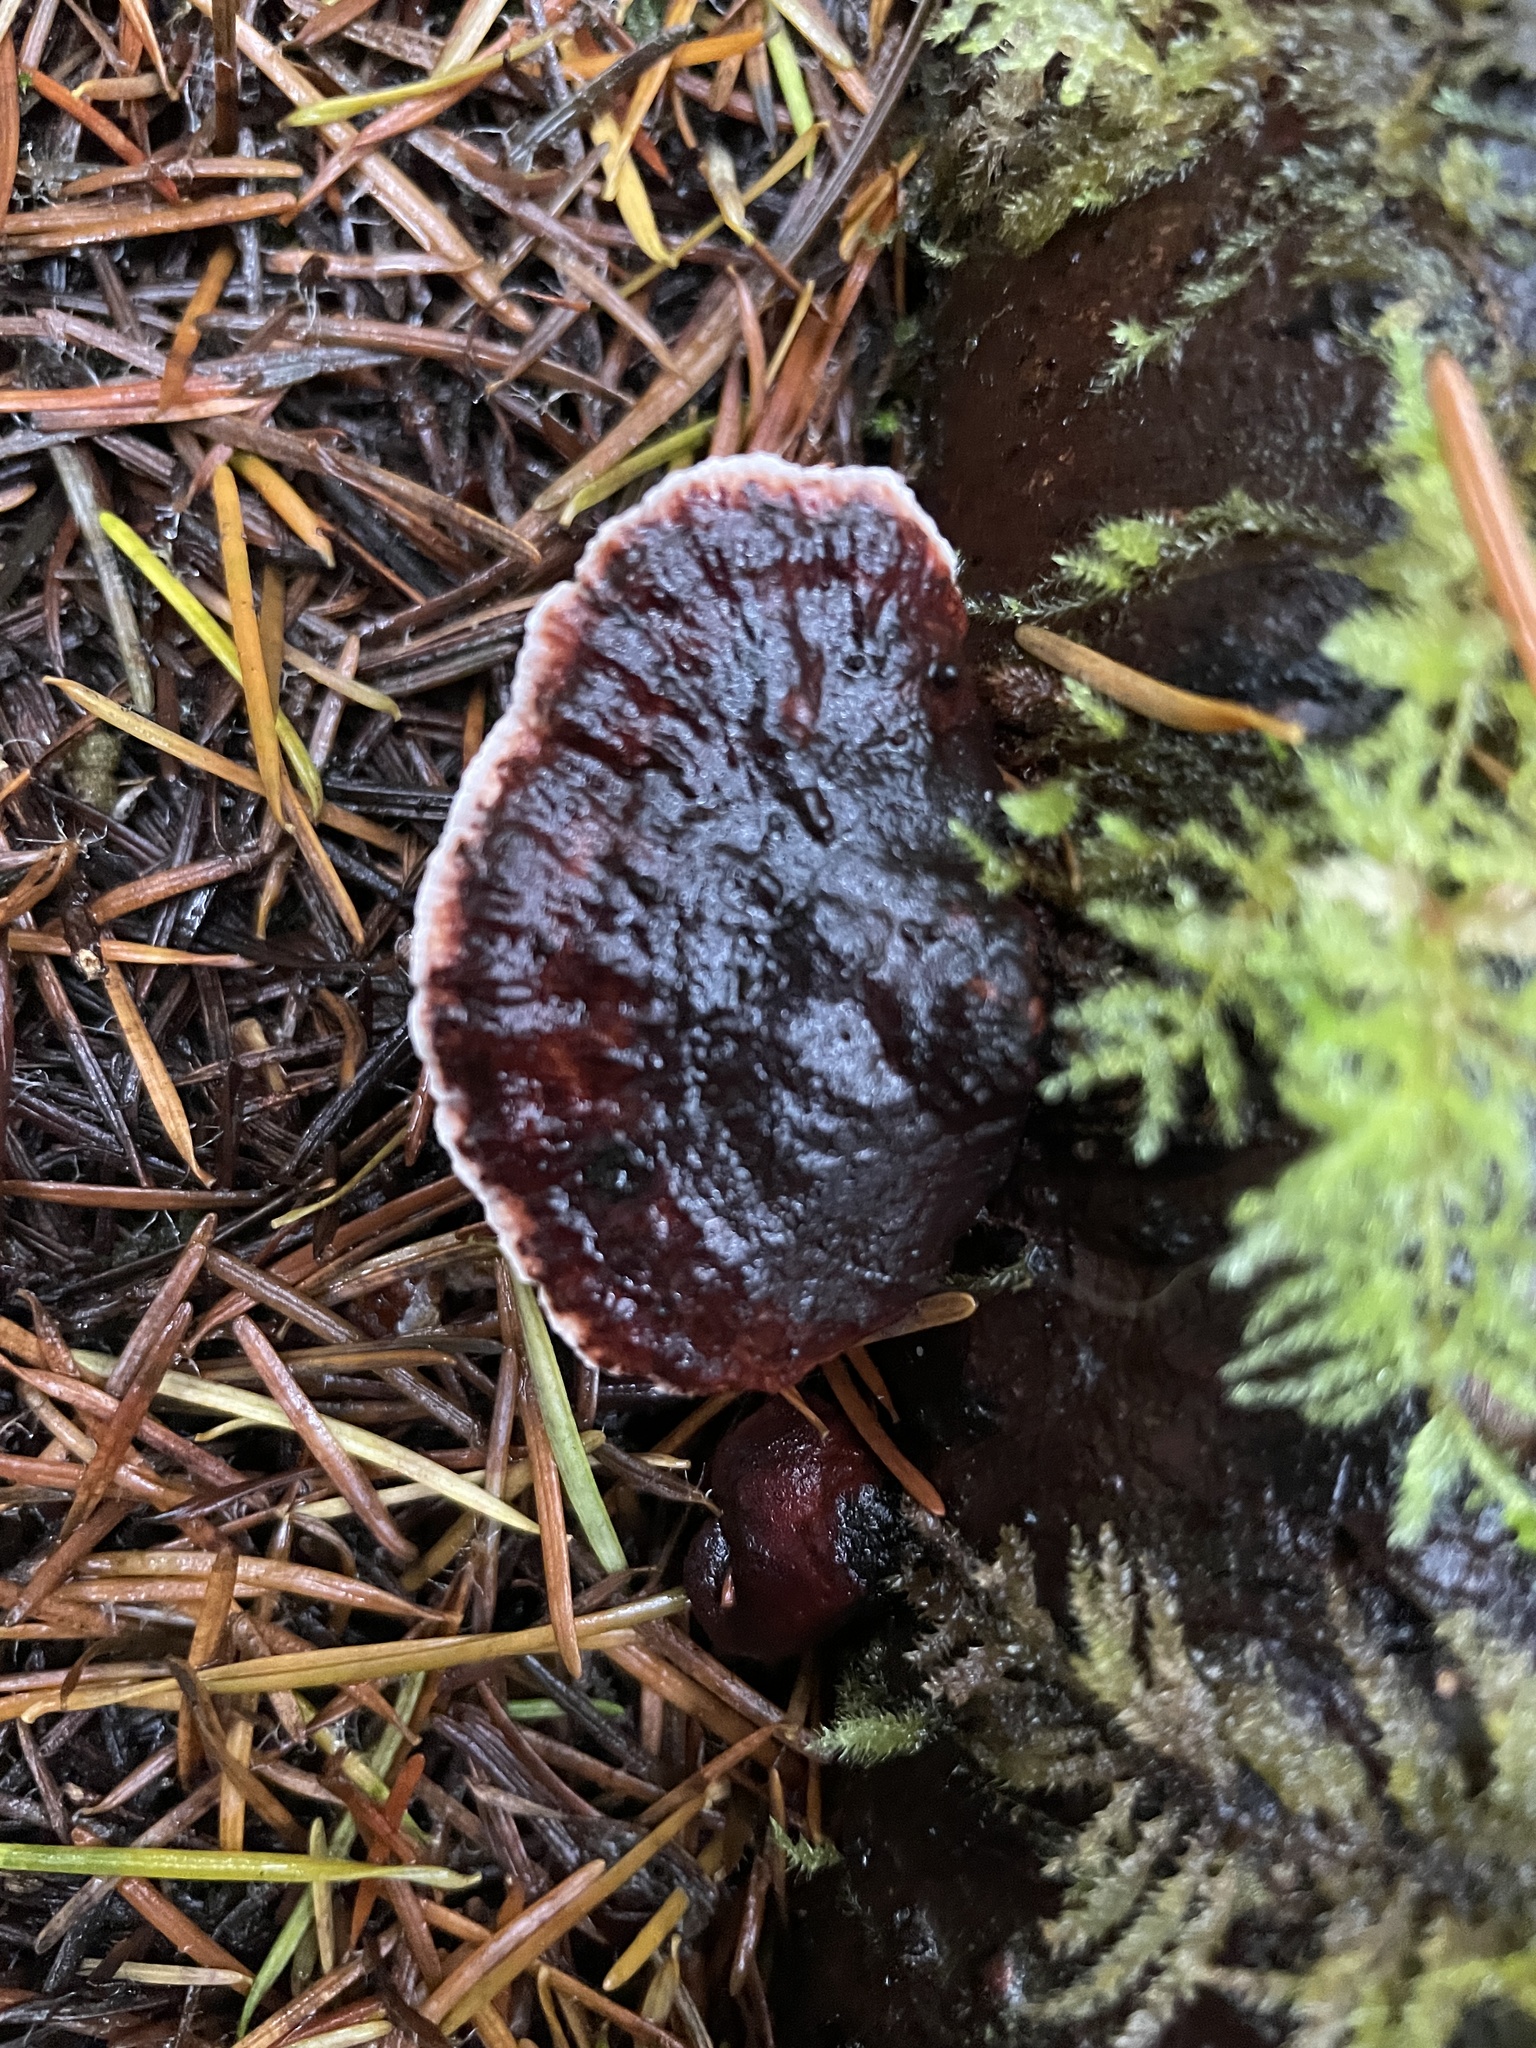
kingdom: Fungi
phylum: Basidiomycota
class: Agaricomycetes
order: Polyporales
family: Fomitopsidaceae
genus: Rhodofomes
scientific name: Rhodofomes cajanderi
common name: Rosy conk
